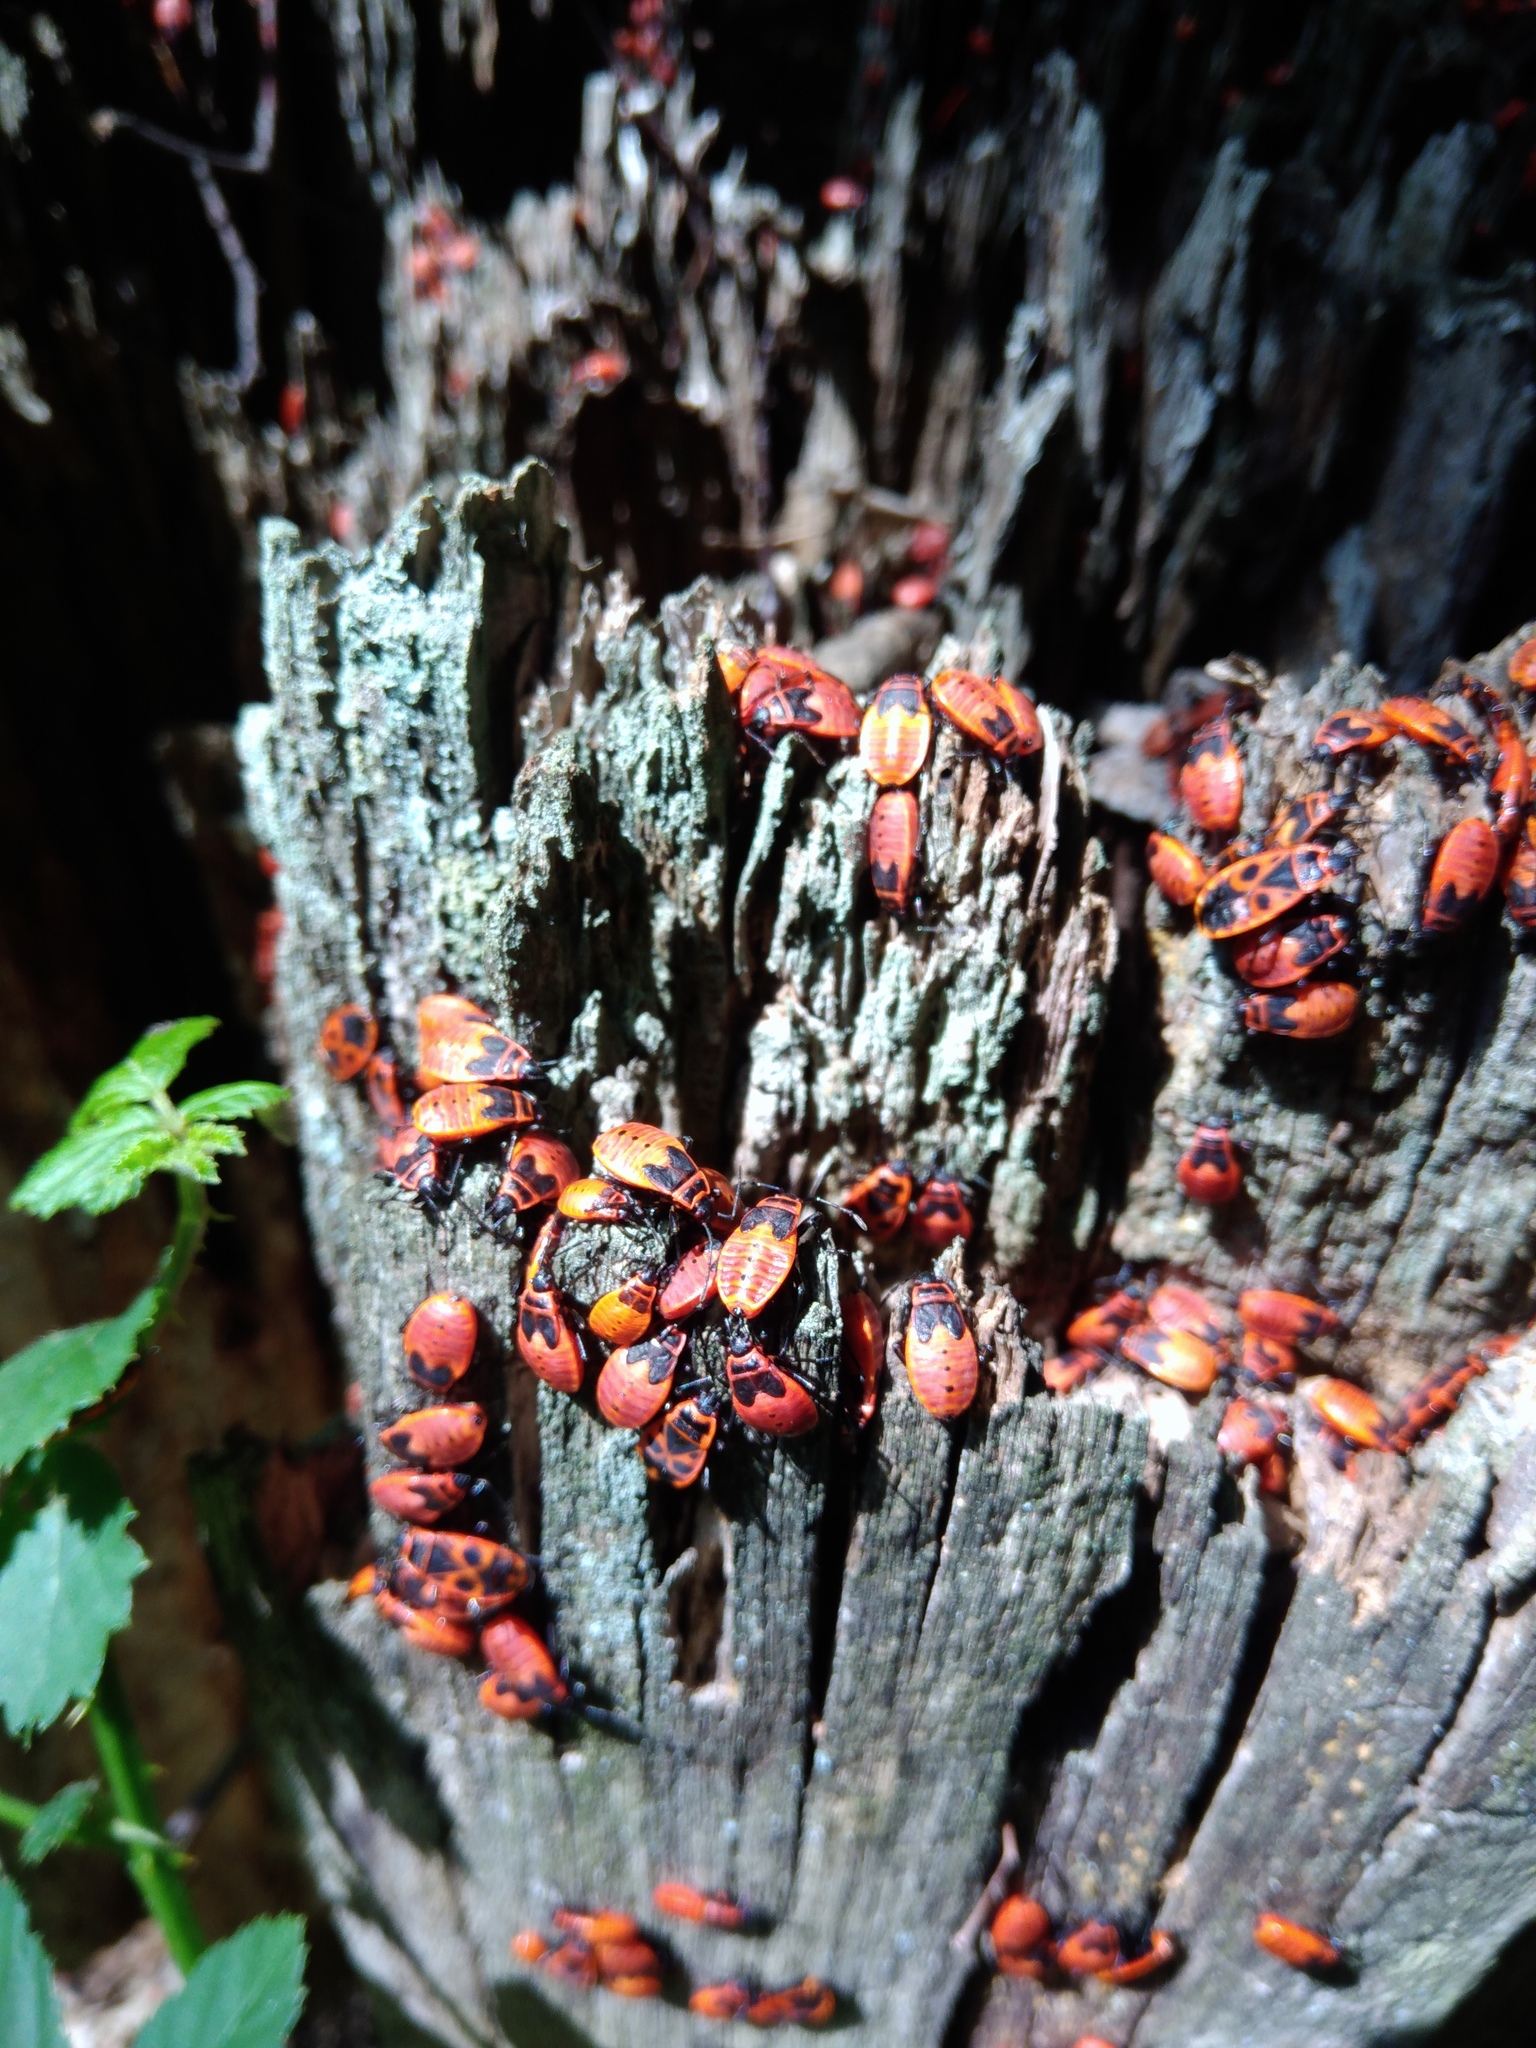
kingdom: Animalia
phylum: Arthropoda
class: Insecta
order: Hemiptera
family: Pyrrhocoridae
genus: Pyrrhocoris
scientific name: Pyrrhocoris apterus
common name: Firebug
